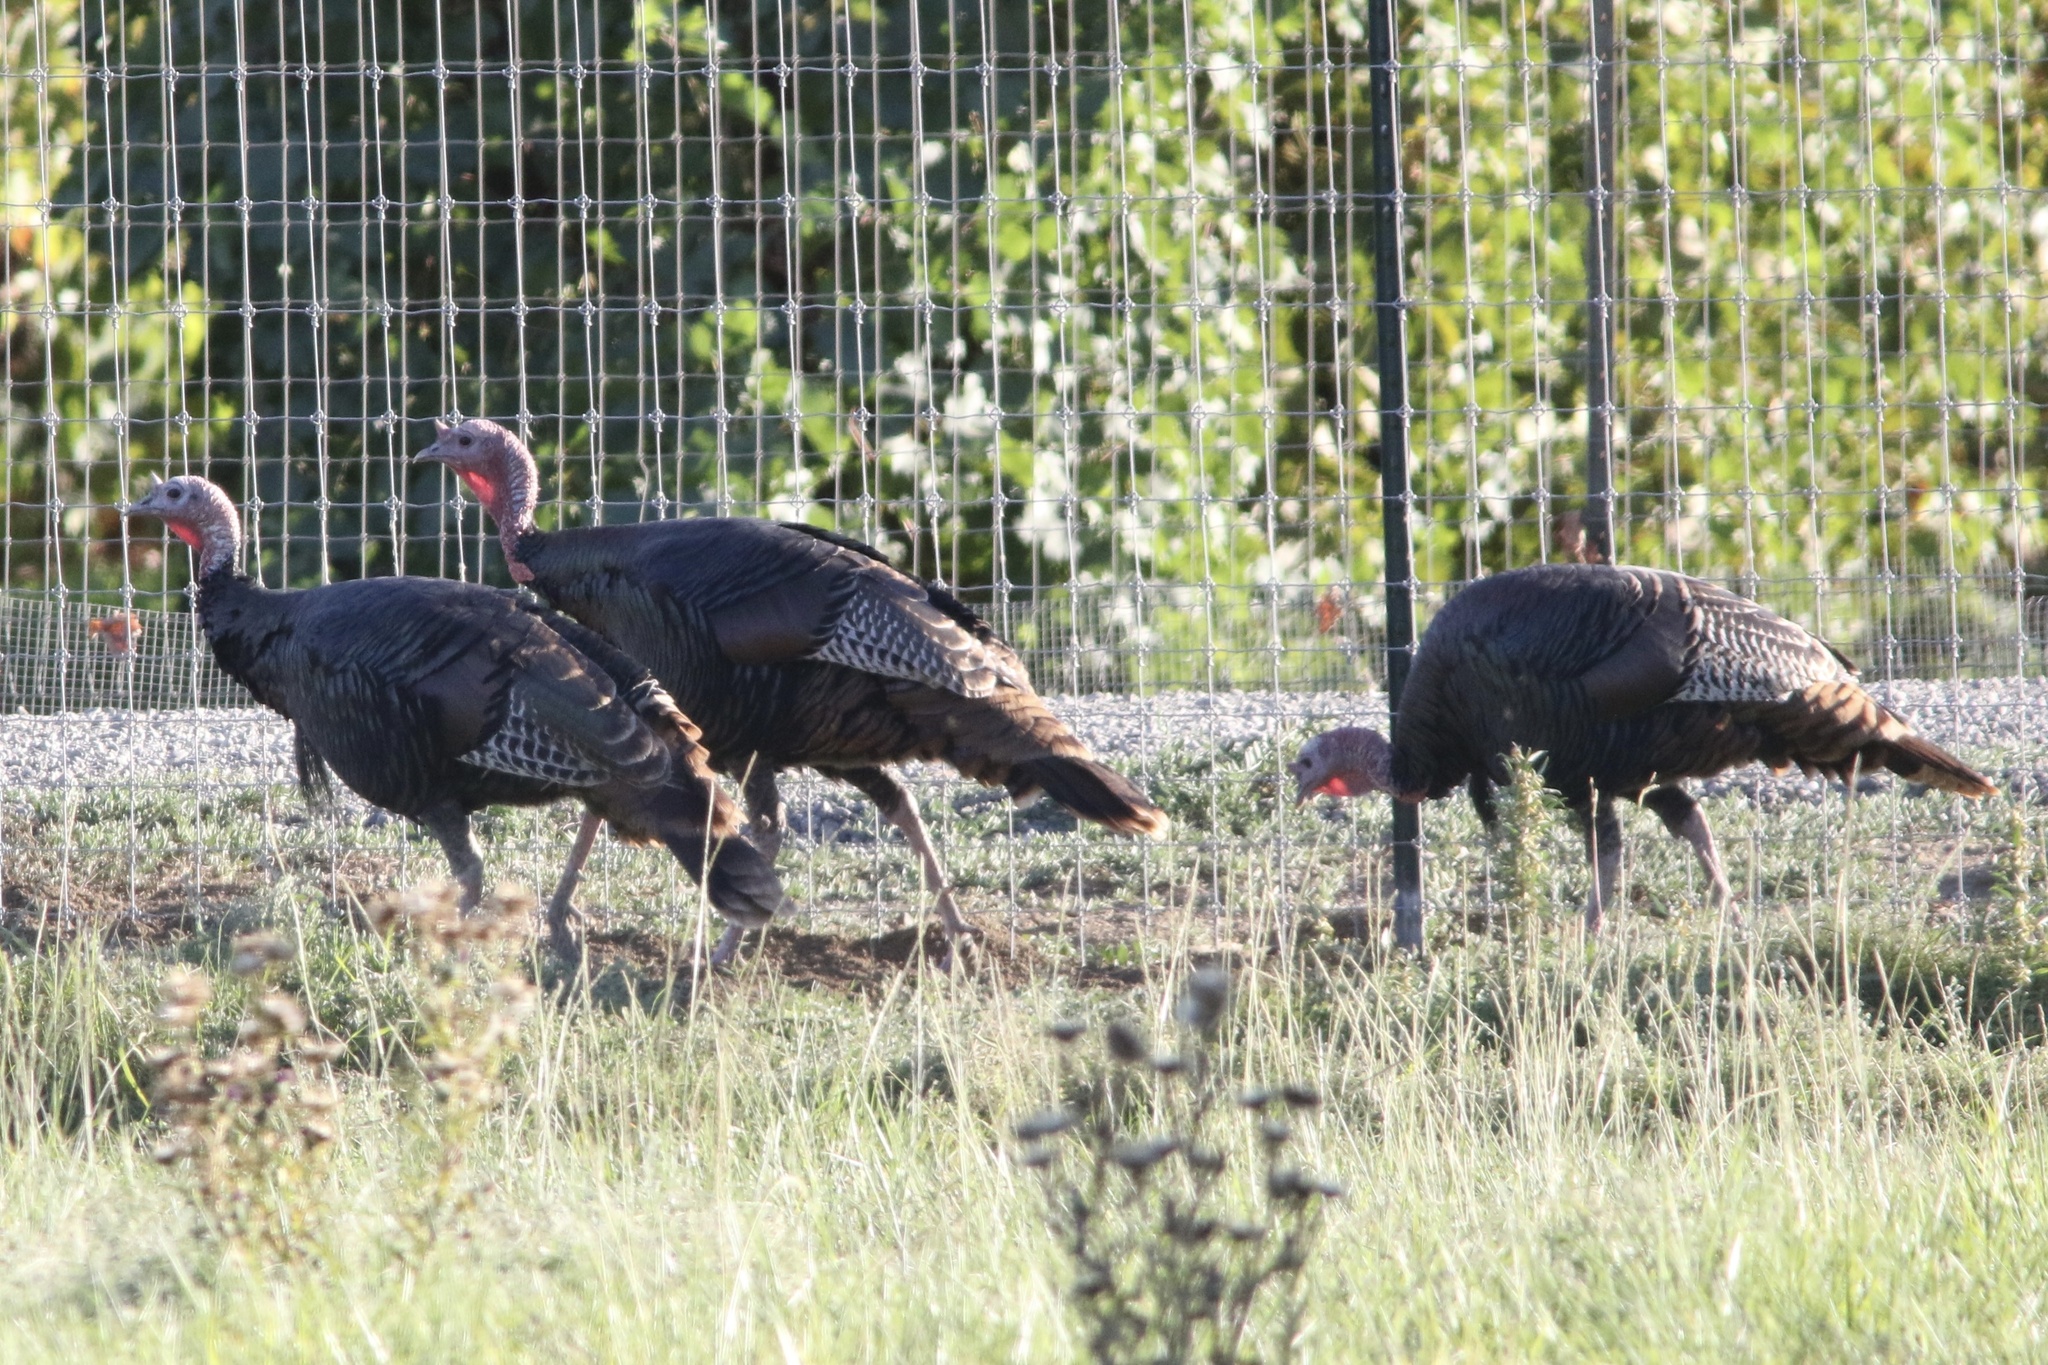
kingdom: Animalia
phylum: Chordata
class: Aves
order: Galliformes
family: Phasianidae
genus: Meleagris
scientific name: Meleagris gallopavo
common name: Wild turkey
